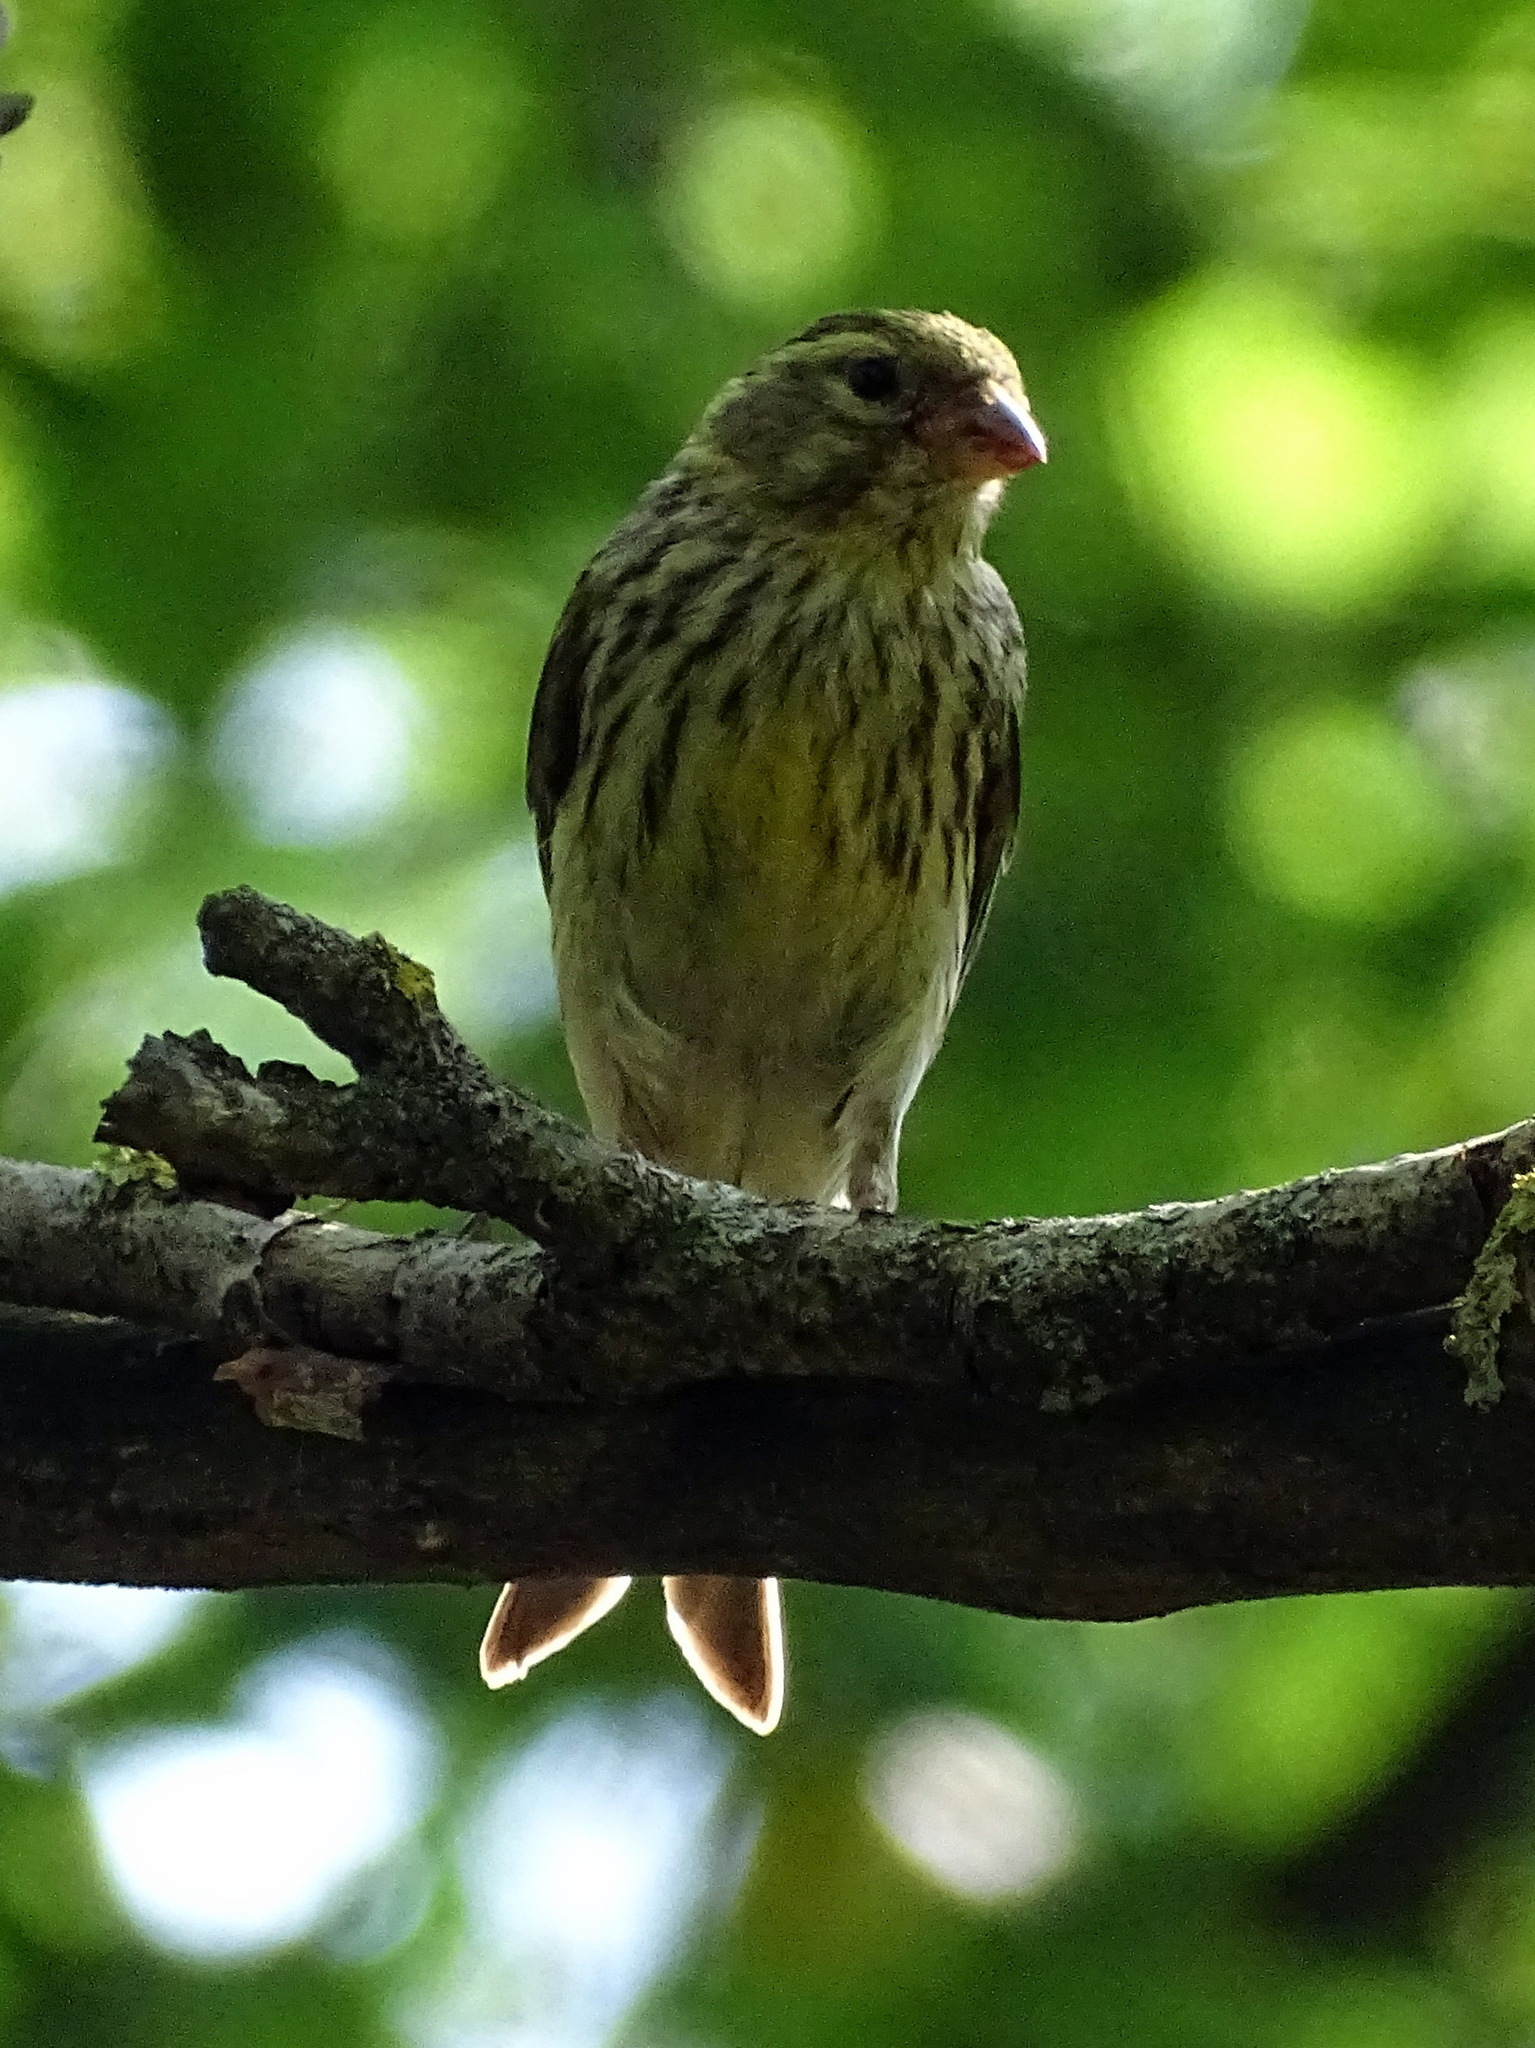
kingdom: Animalia
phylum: Chordata
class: Aves
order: Passeriformes
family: Fringillidae
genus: Serinus
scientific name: Serinus serinus
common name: European serin
